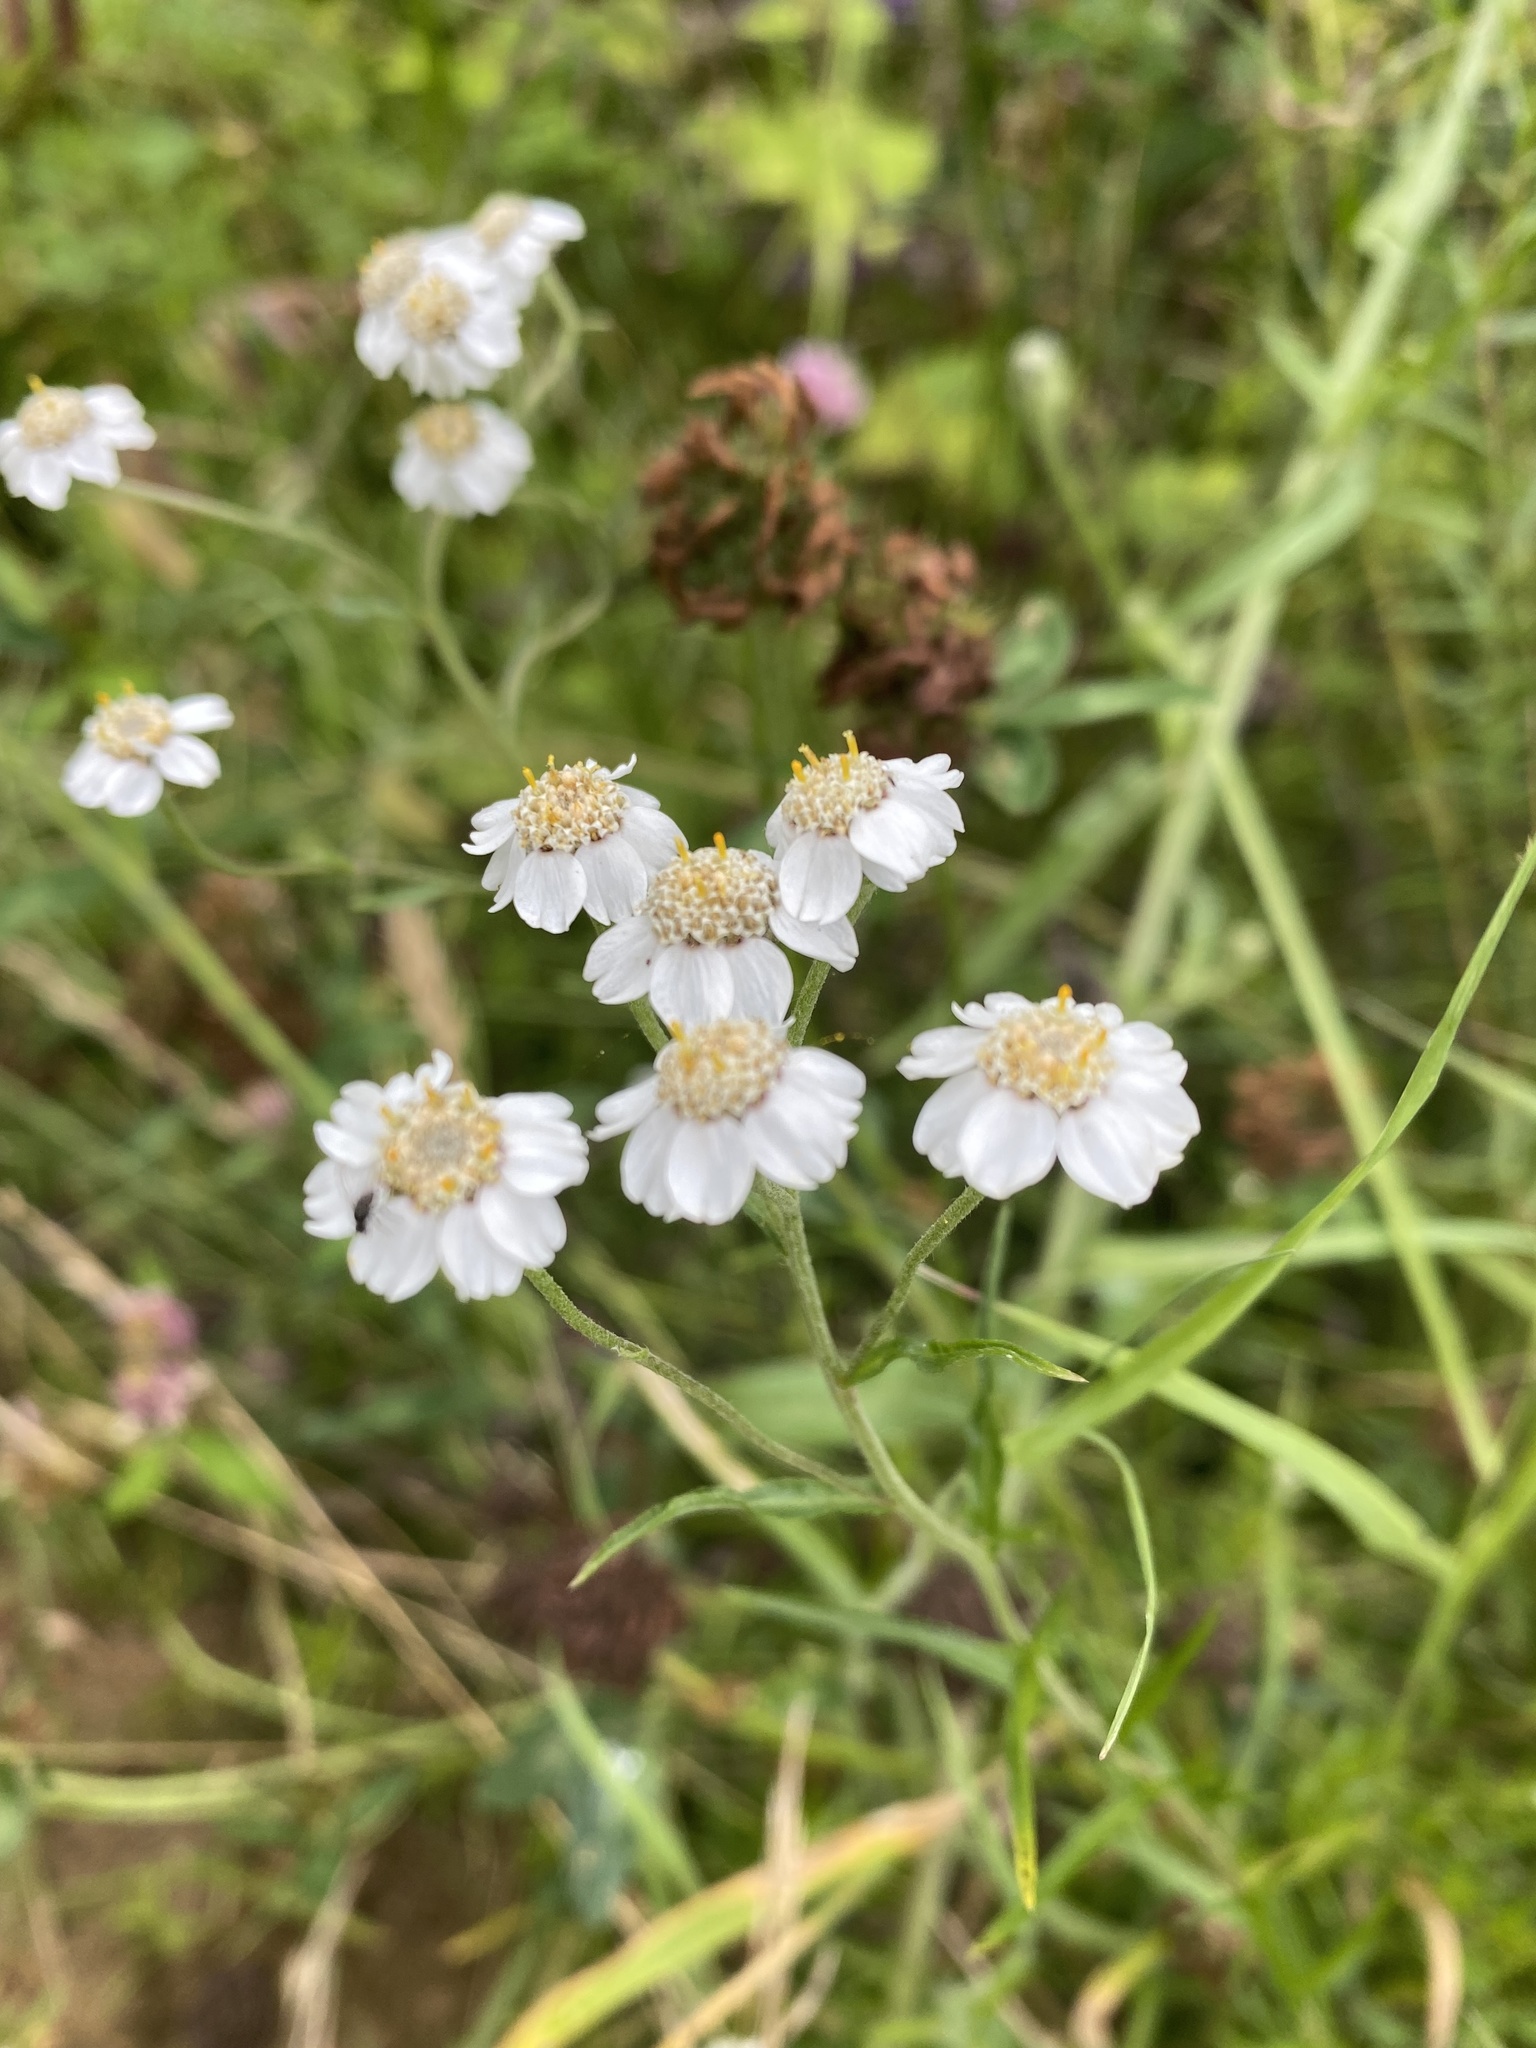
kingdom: Plantae
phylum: Tracheophyta
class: Magnoliopsida
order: Asterales
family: Asteraceae
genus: Achillea
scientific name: Achillea ptarmica
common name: Sneezeweed
